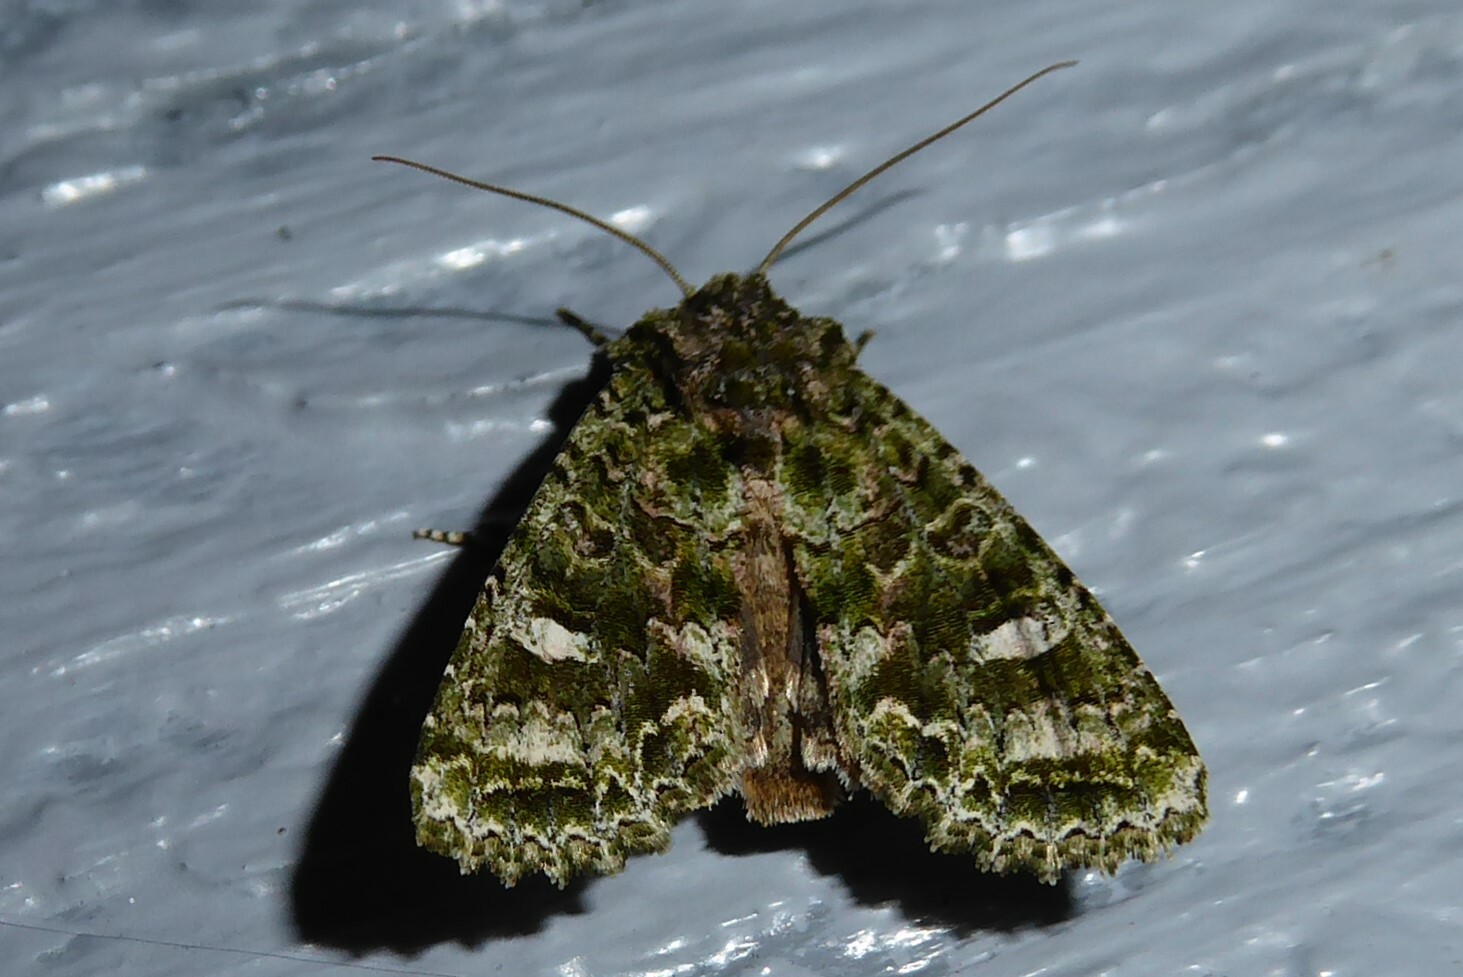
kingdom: Animalia
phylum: Arthropoda
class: Insecta
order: Lepidoptera
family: Noctuidae
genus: Ichneutica
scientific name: Ichneutica
